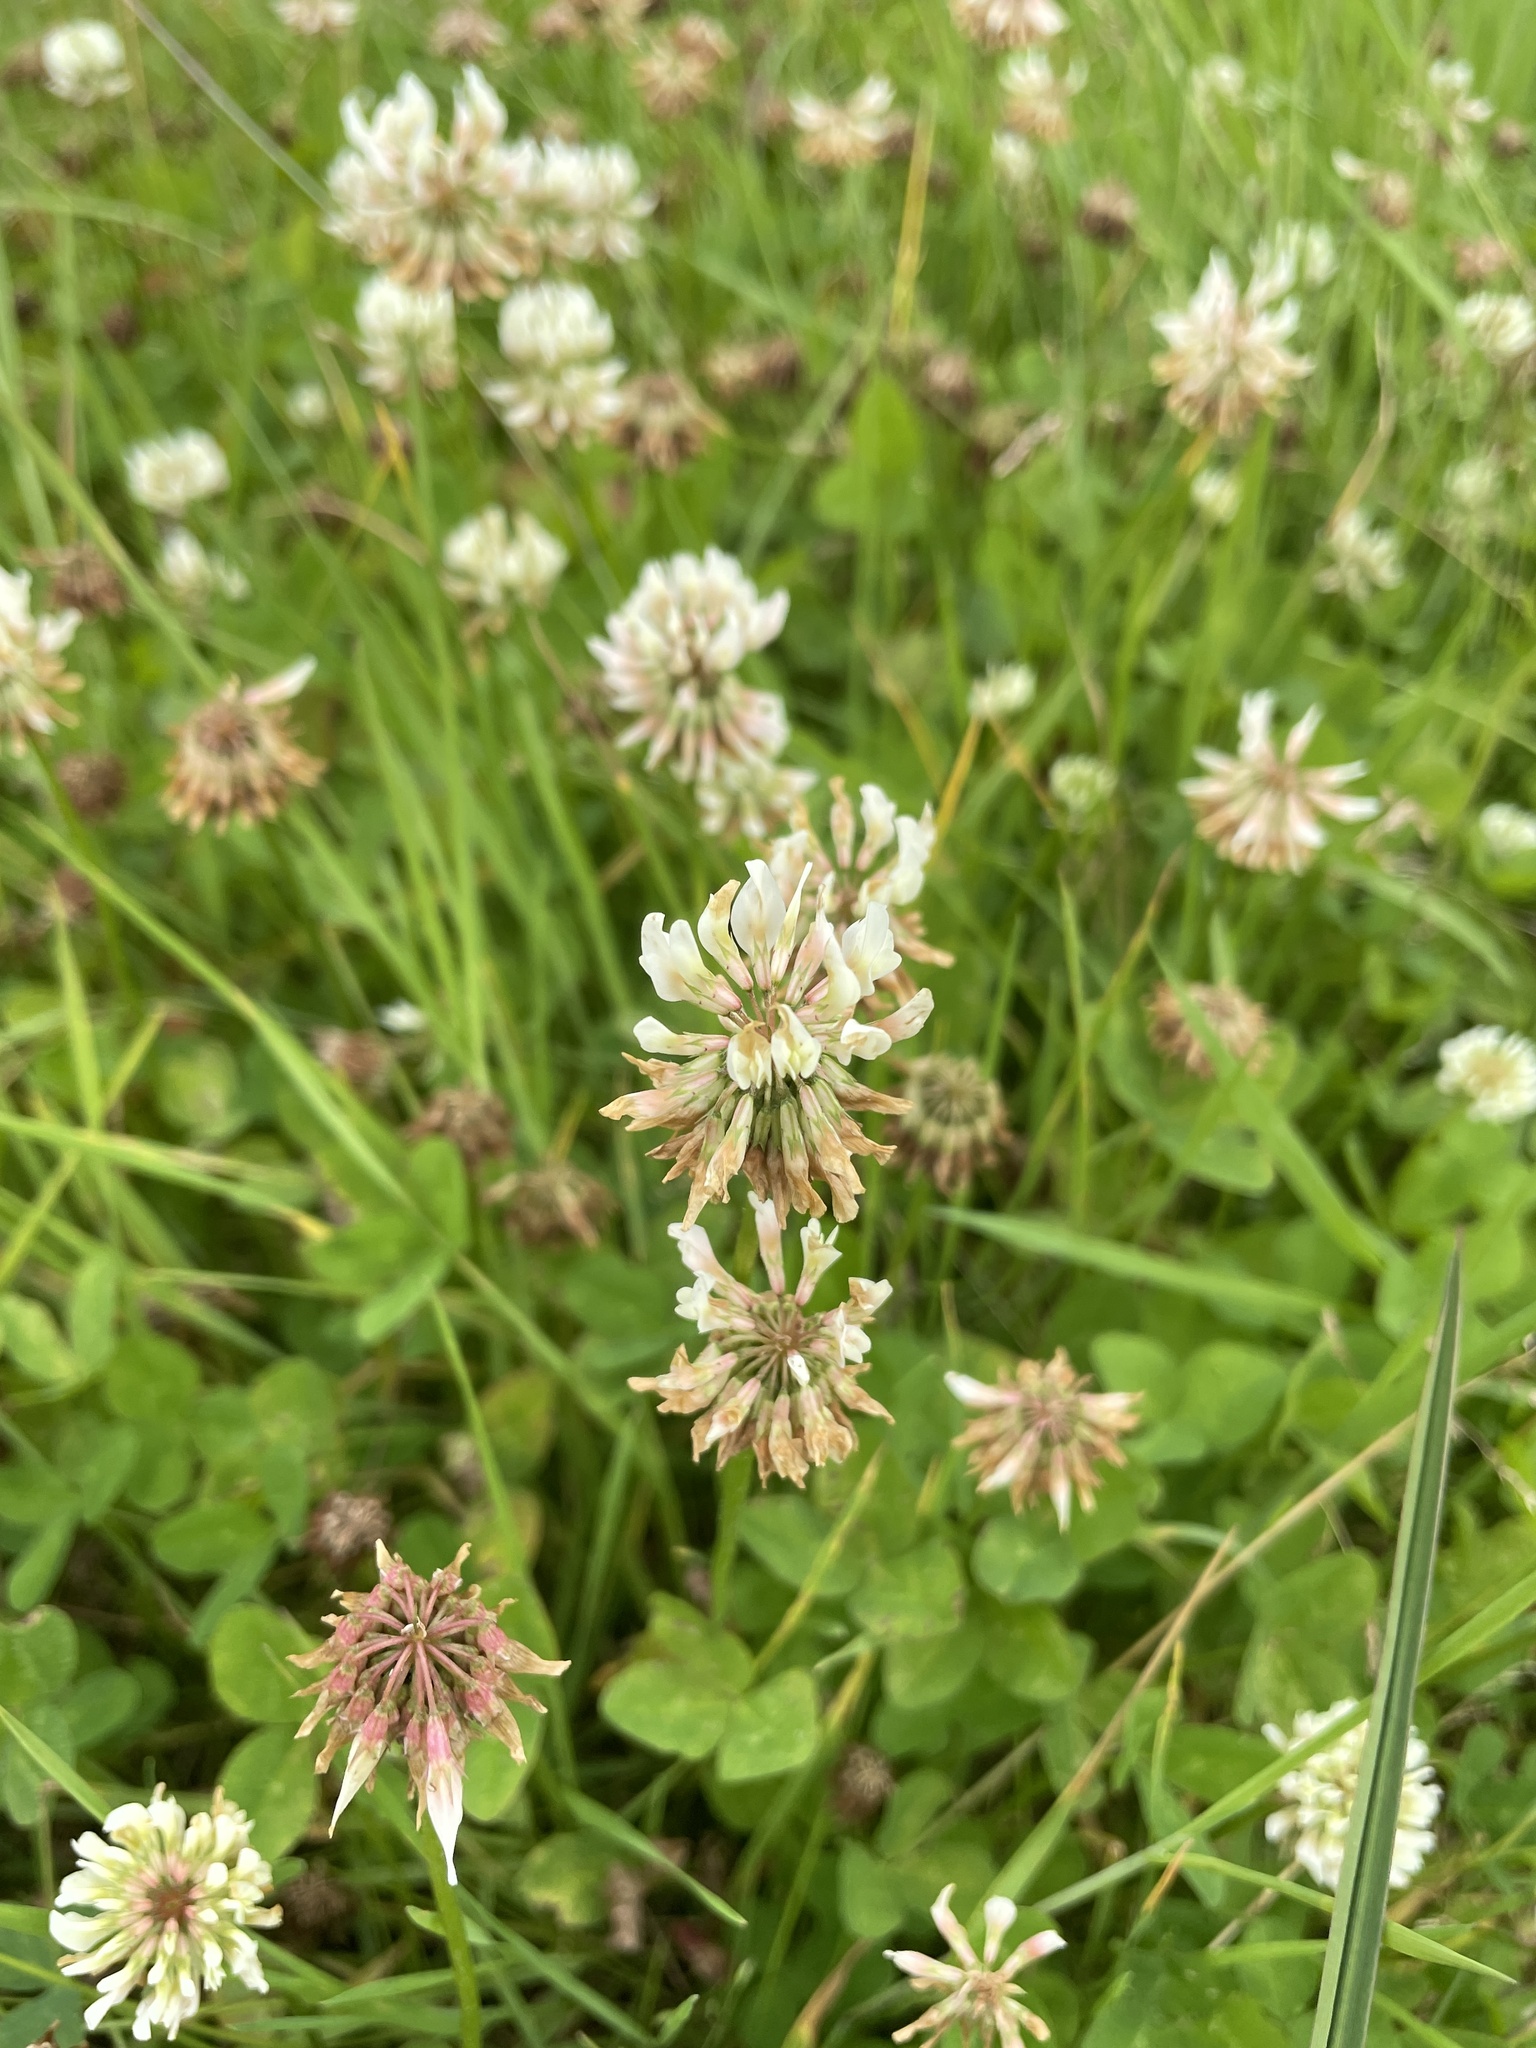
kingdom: Plantae
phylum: Tracheophyta
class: Magnoliopsida
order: Fabales
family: Fabaceae
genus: Trifolium
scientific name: Trifolium repens
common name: White clover
